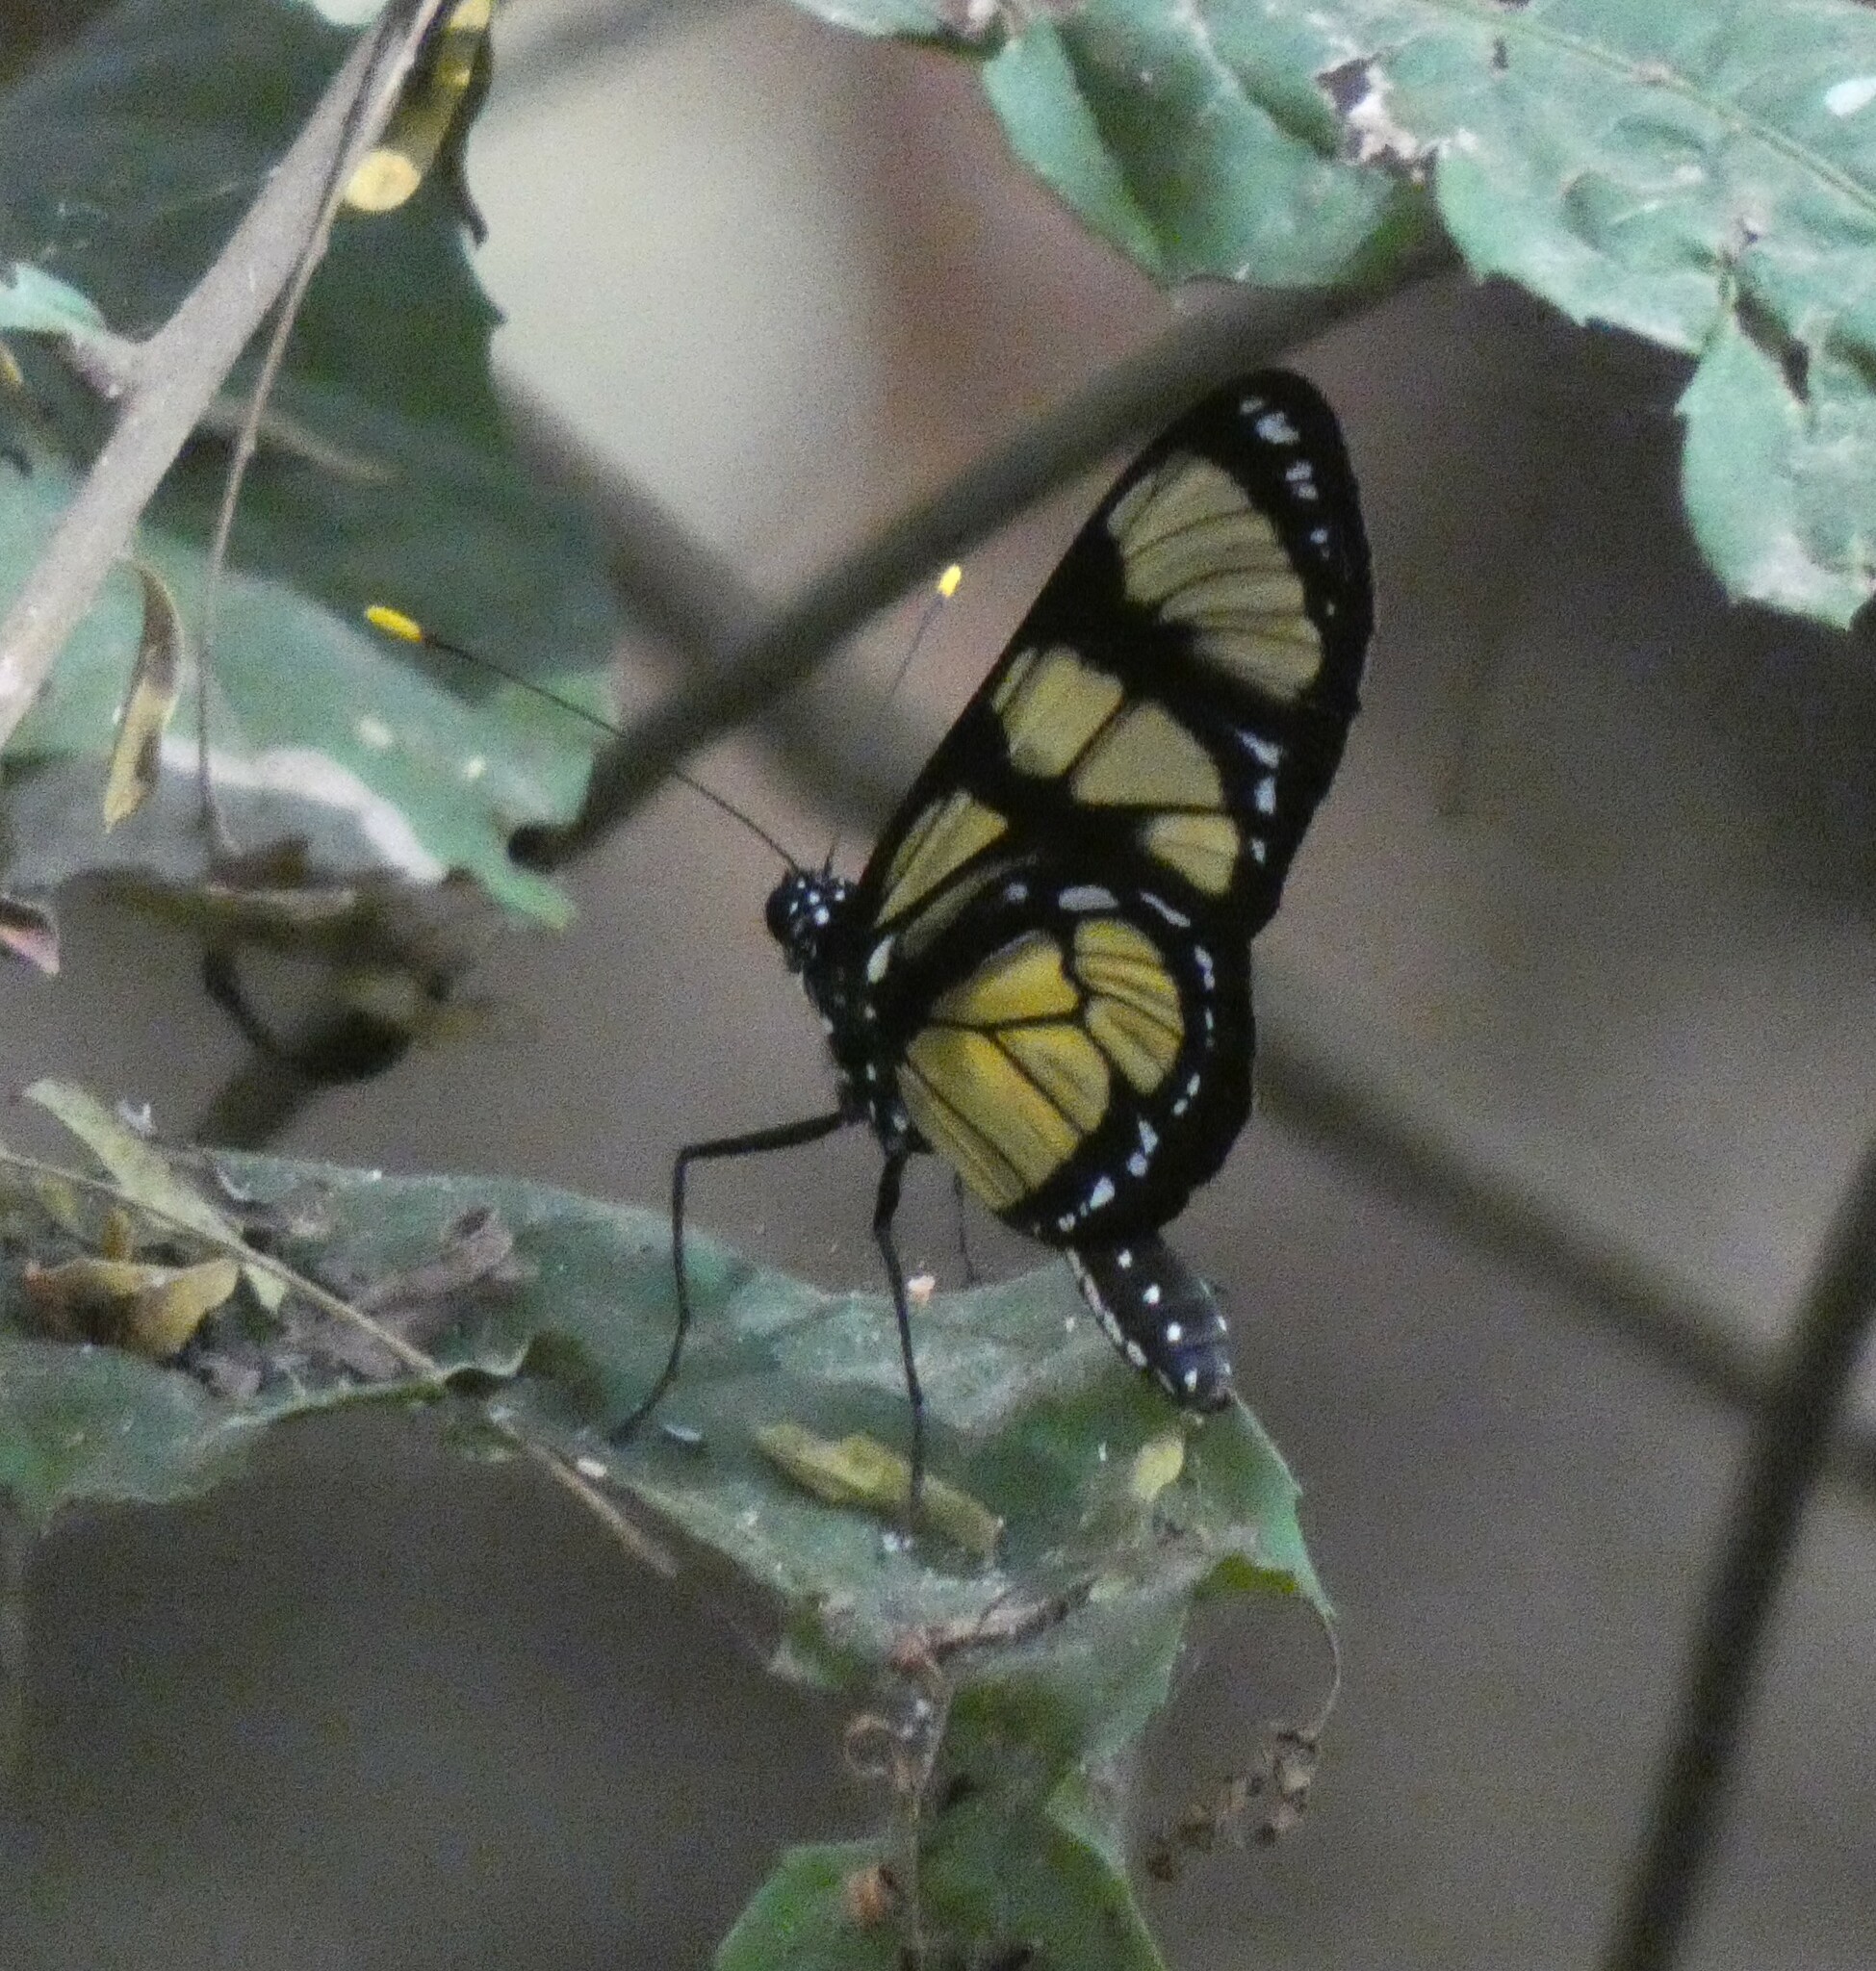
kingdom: Animalia
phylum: Arthropoda
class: Insecta
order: Lepidoptera
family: Nymphalidae
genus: Methona
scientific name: Methona themisto
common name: Themisto amberwing
